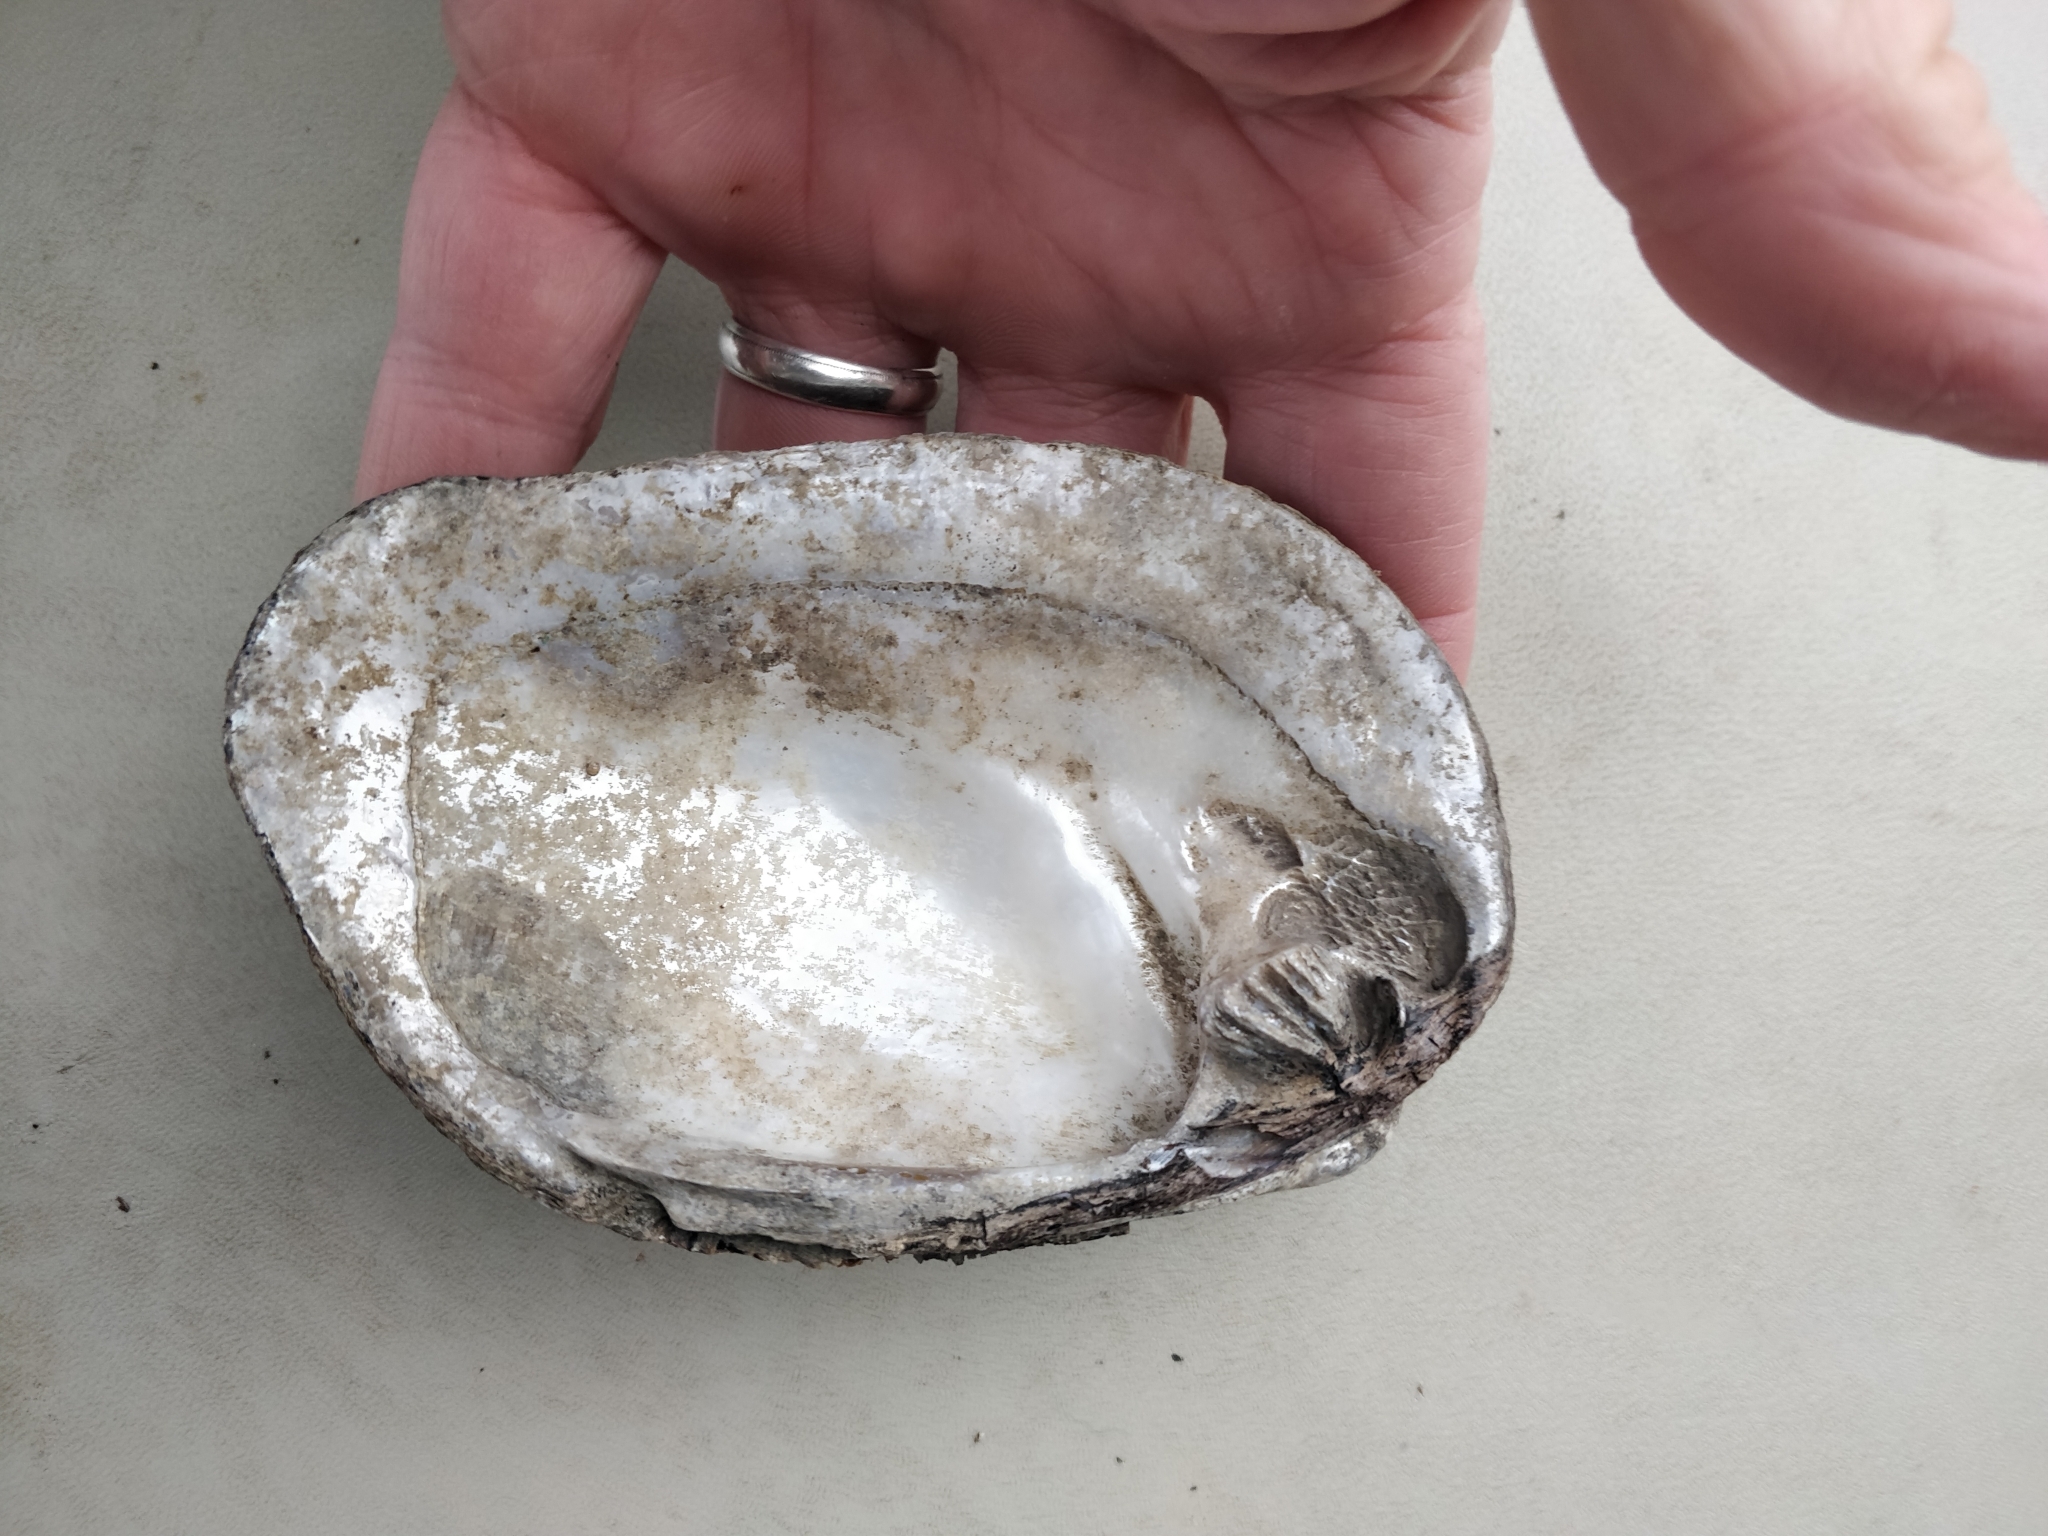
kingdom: Animalia
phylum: Mollusca
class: Bivalvia
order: Unionida
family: Unionidae
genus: Amblema
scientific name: Amblema plicata
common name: Threeridge
